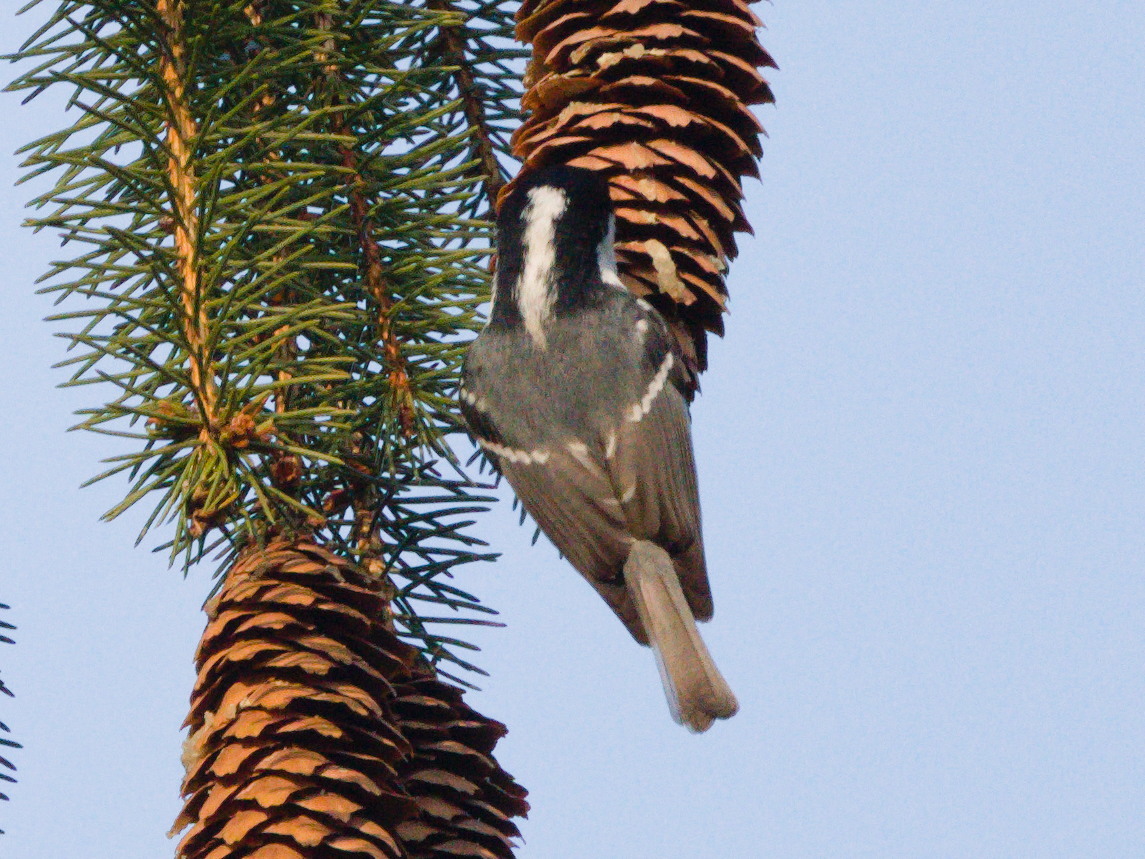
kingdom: Animalia
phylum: Chordata
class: Aves
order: Passeriformes
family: Paridae
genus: Periparus
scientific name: Periparus ater
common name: Coal tit
